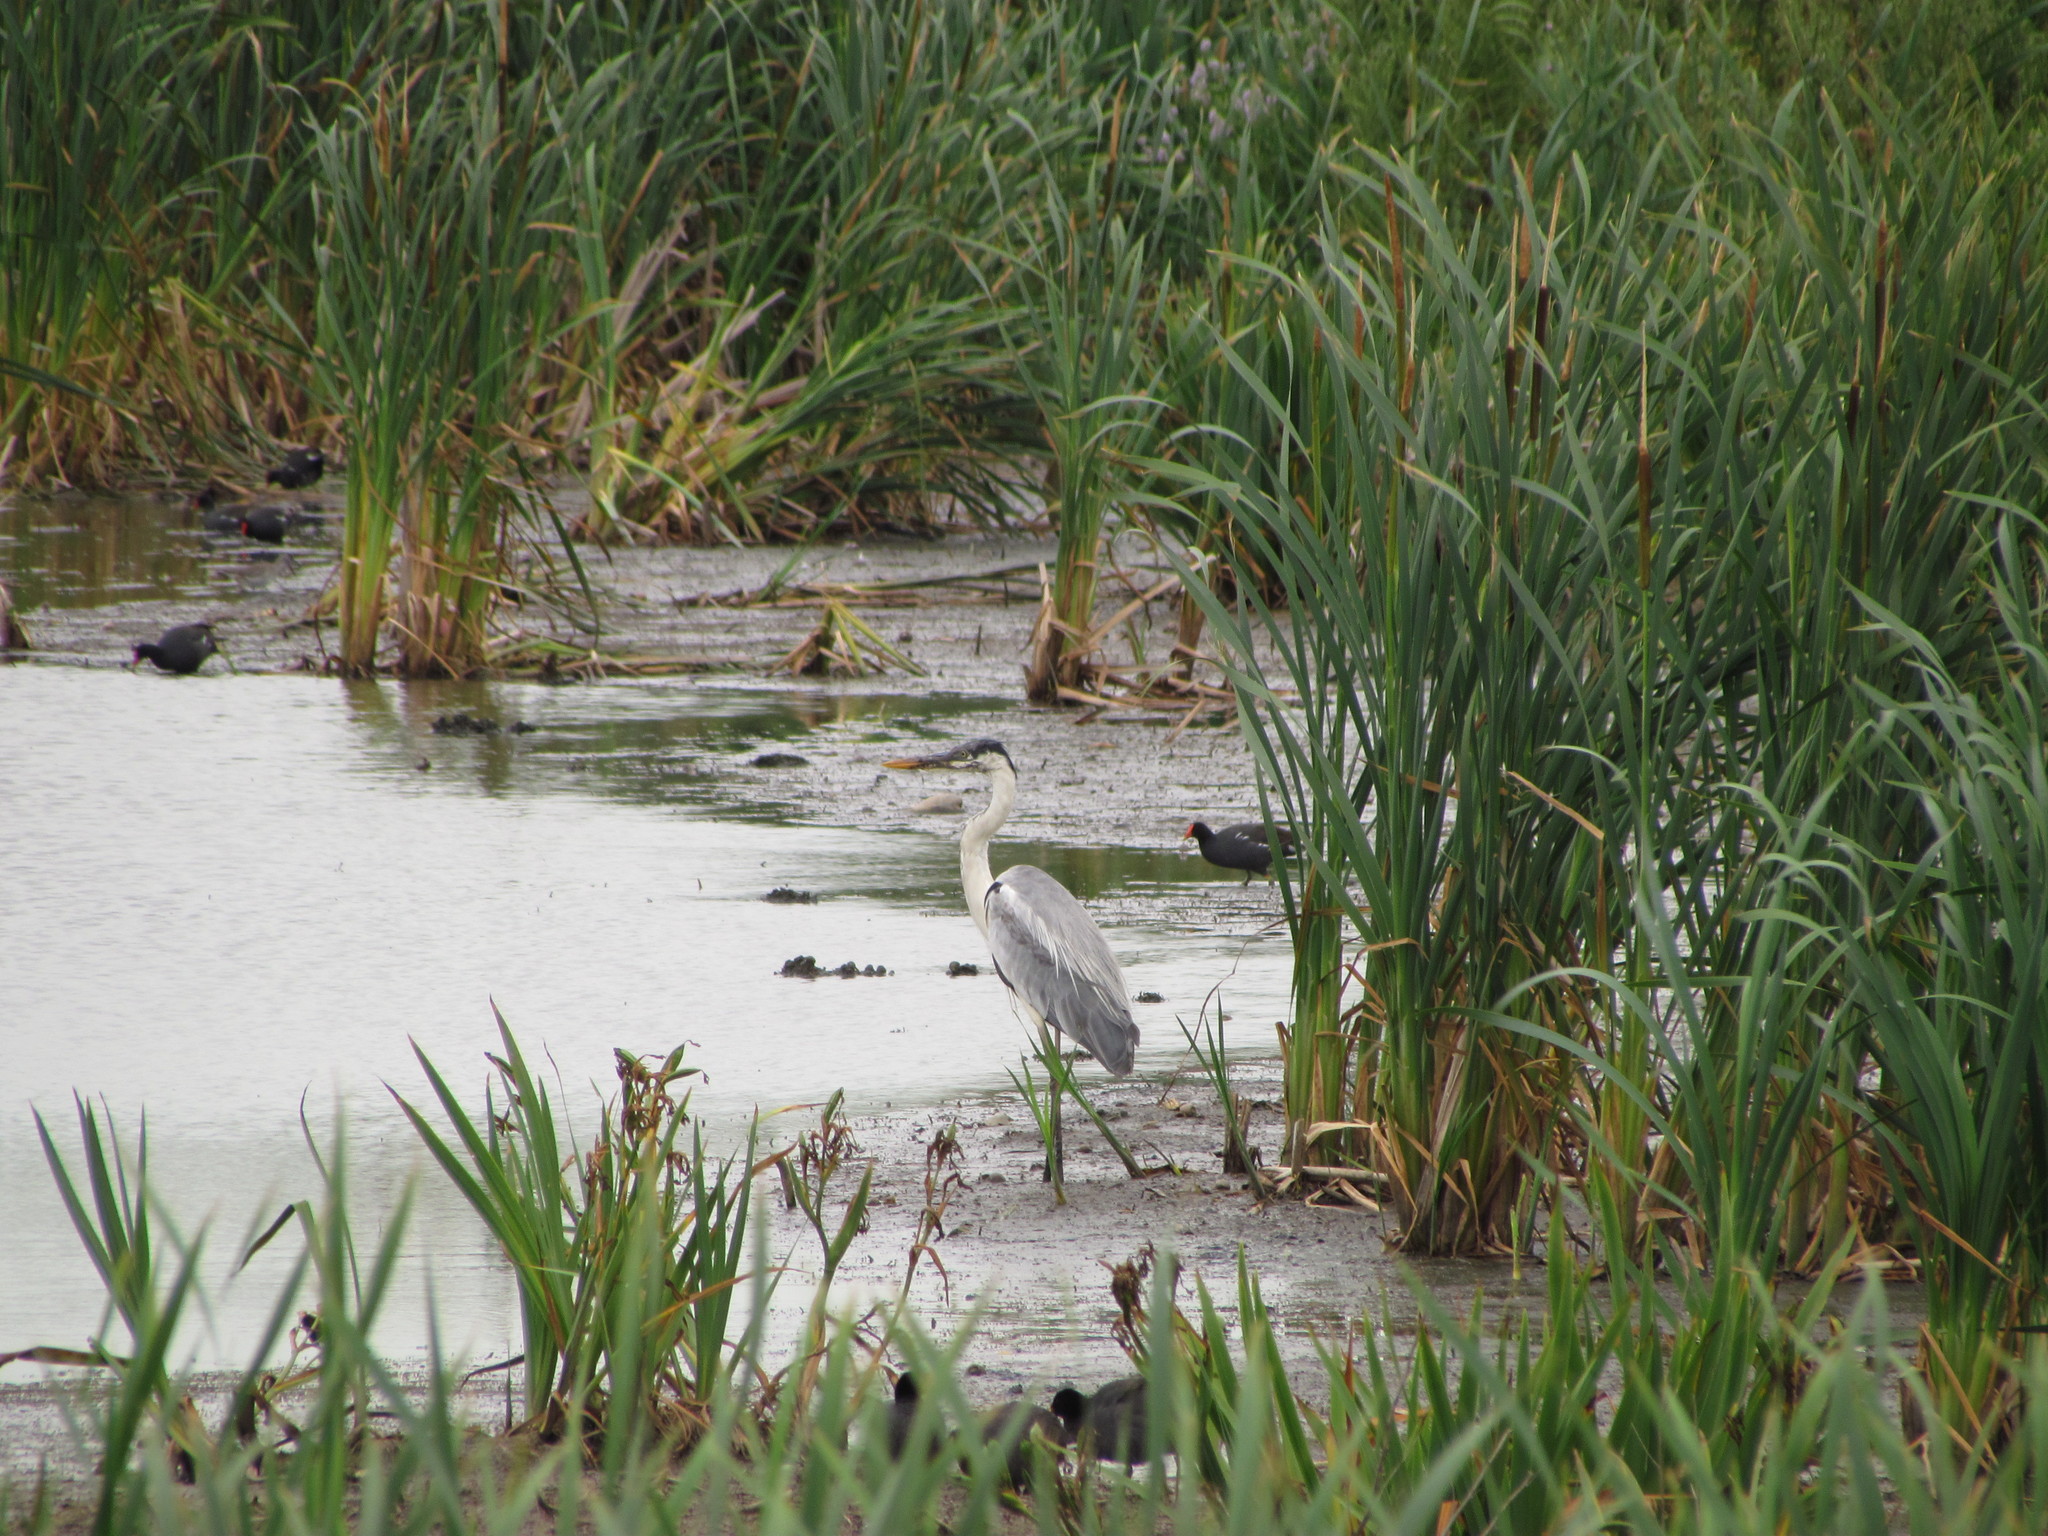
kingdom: Animalia
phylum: Chordata
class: Aves
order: Pelecaniformes
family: Ardeidae
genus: Ardea
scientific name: Ardea cocoi
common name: Cocoi heron
